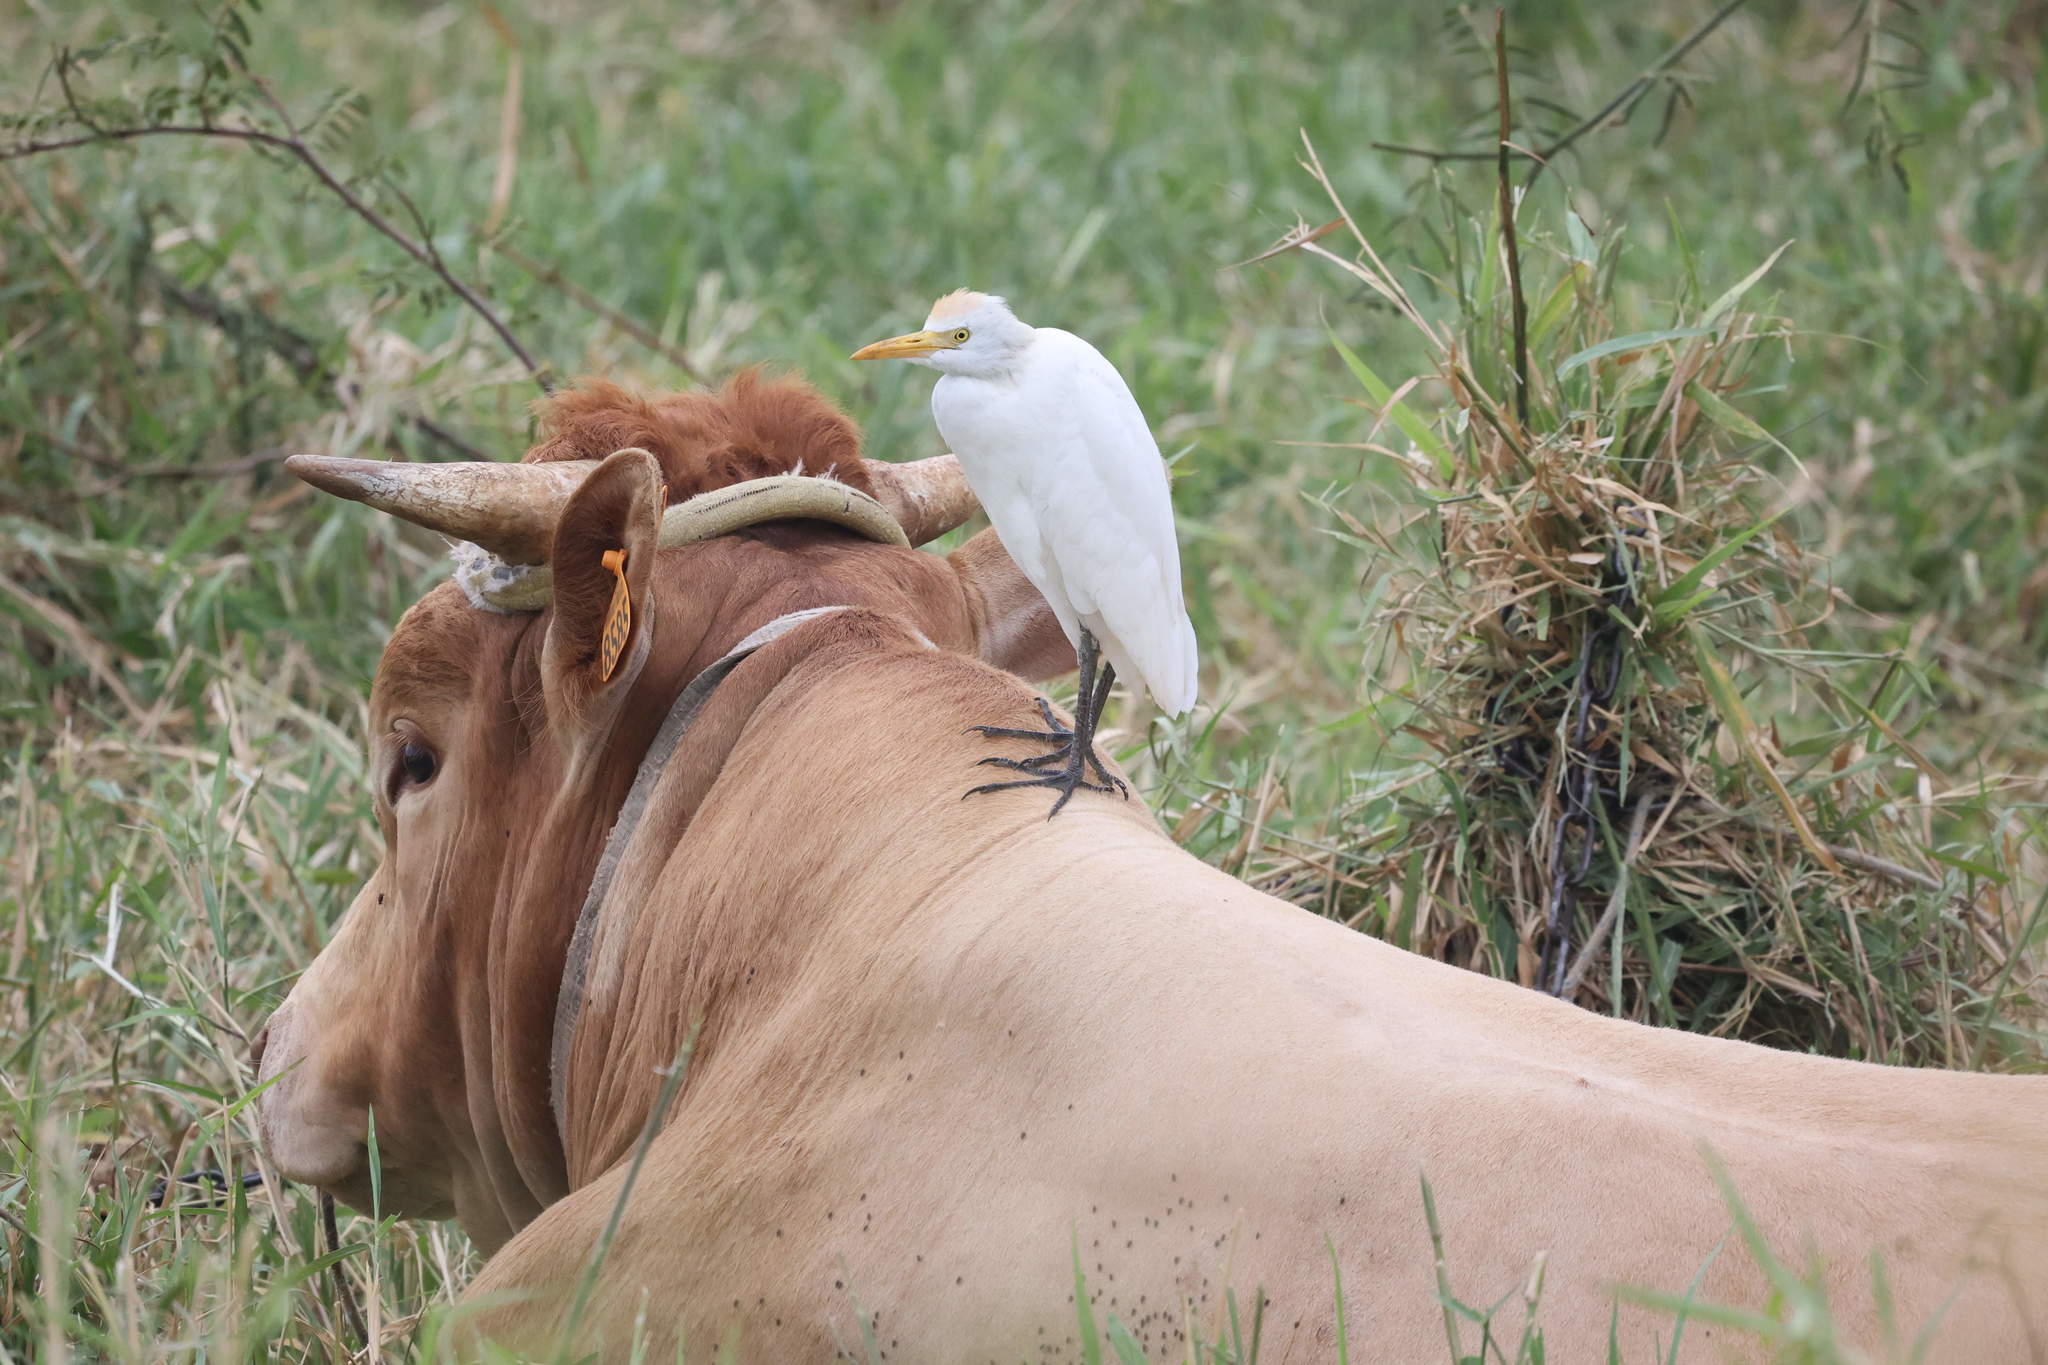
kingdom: Animalia
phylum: Chordata
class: Aves
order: Pelecaniformes
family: Ardeidae
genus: Bubulcus
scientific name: Bubulcus ibis
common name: Cattle egret
